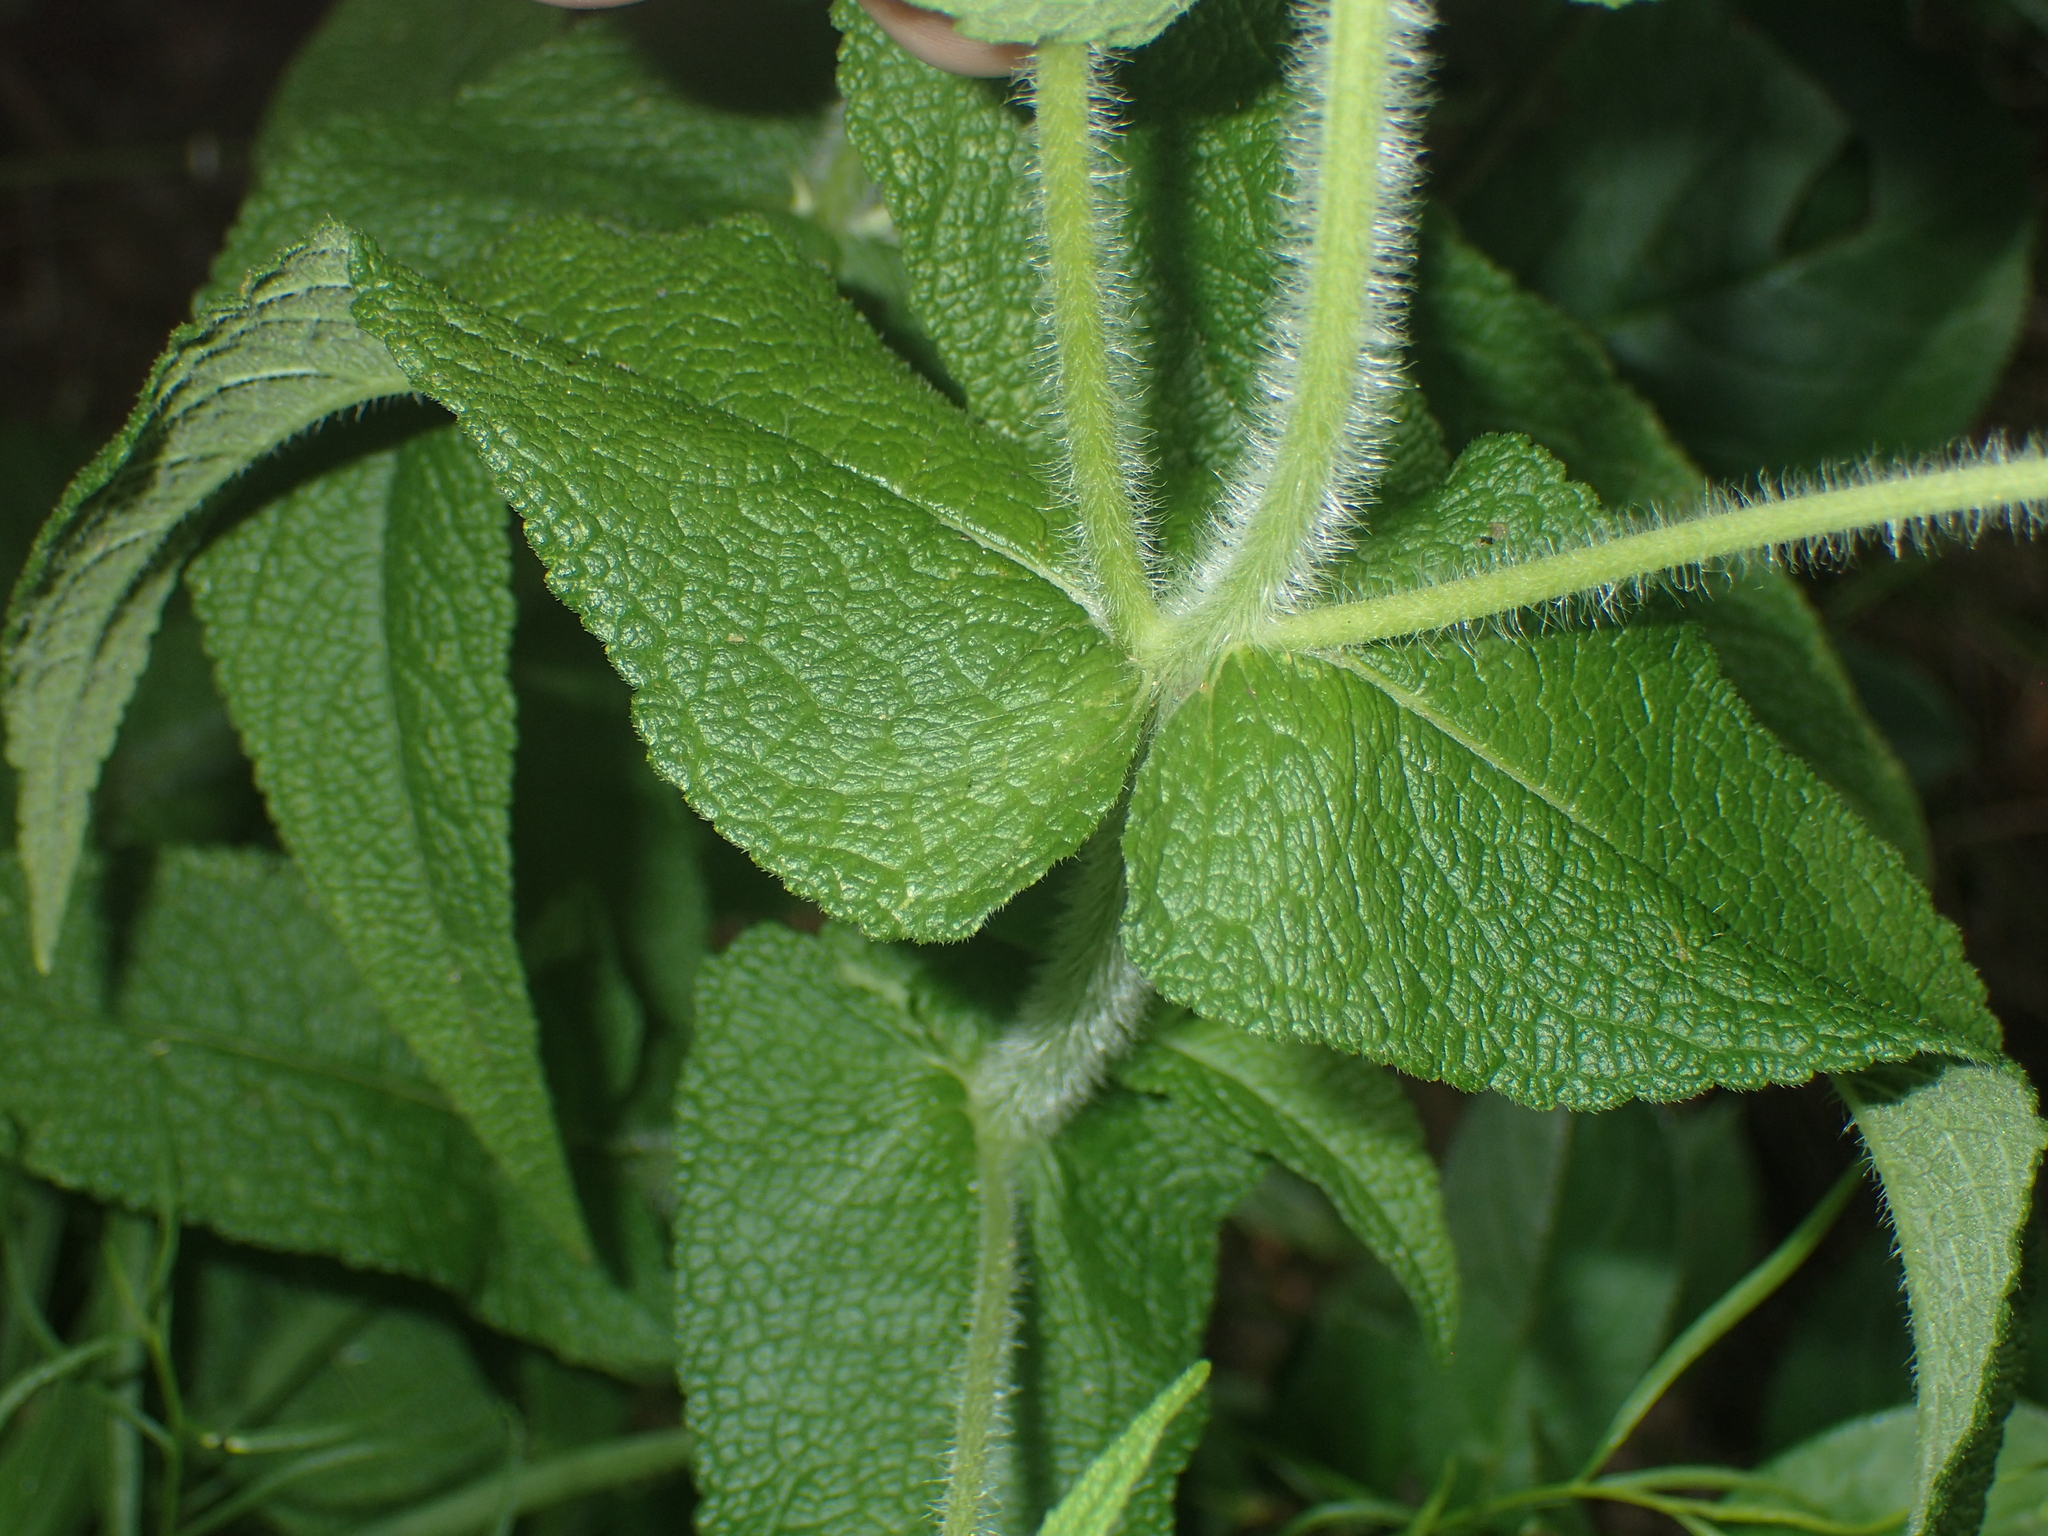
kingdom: Plantae
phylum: Tracheophyta
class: Magnoliopsida
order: Asterales
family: Asteraceae
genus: Eupatorium
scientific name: Eupatorium perfoliatum
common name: Boneset
